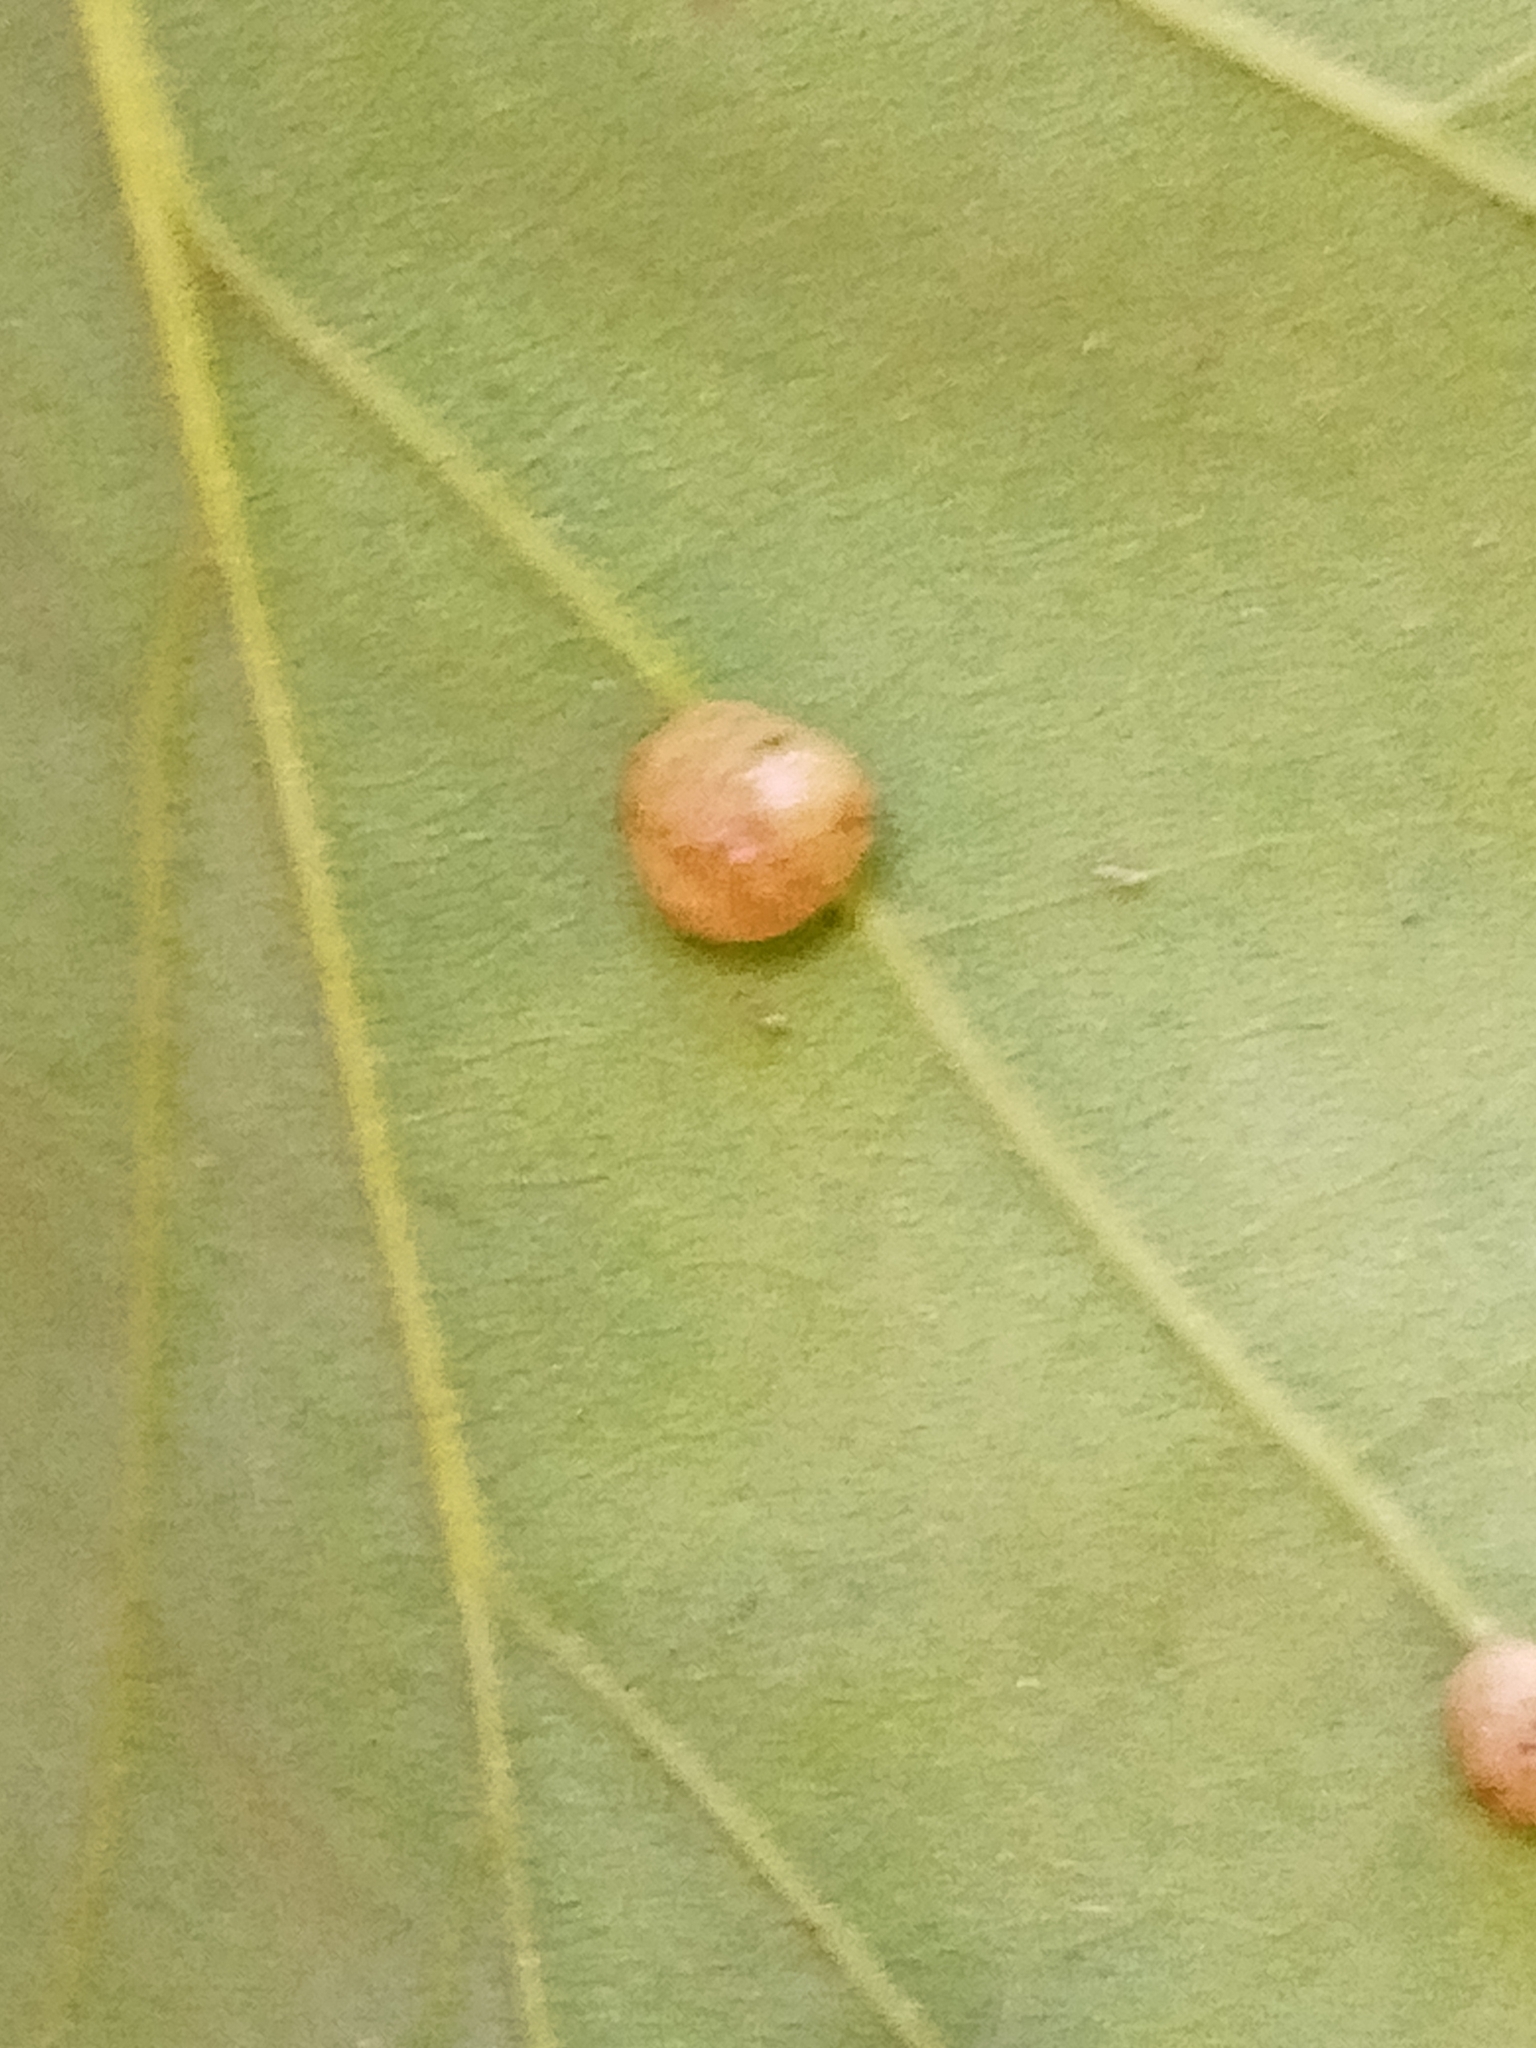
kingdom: Animalia
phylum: Arthropoda
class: Insecta
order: Hymenoptera
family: Cynipidae
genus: Cynips
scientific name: Cynips divisa
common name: Red currant gall
